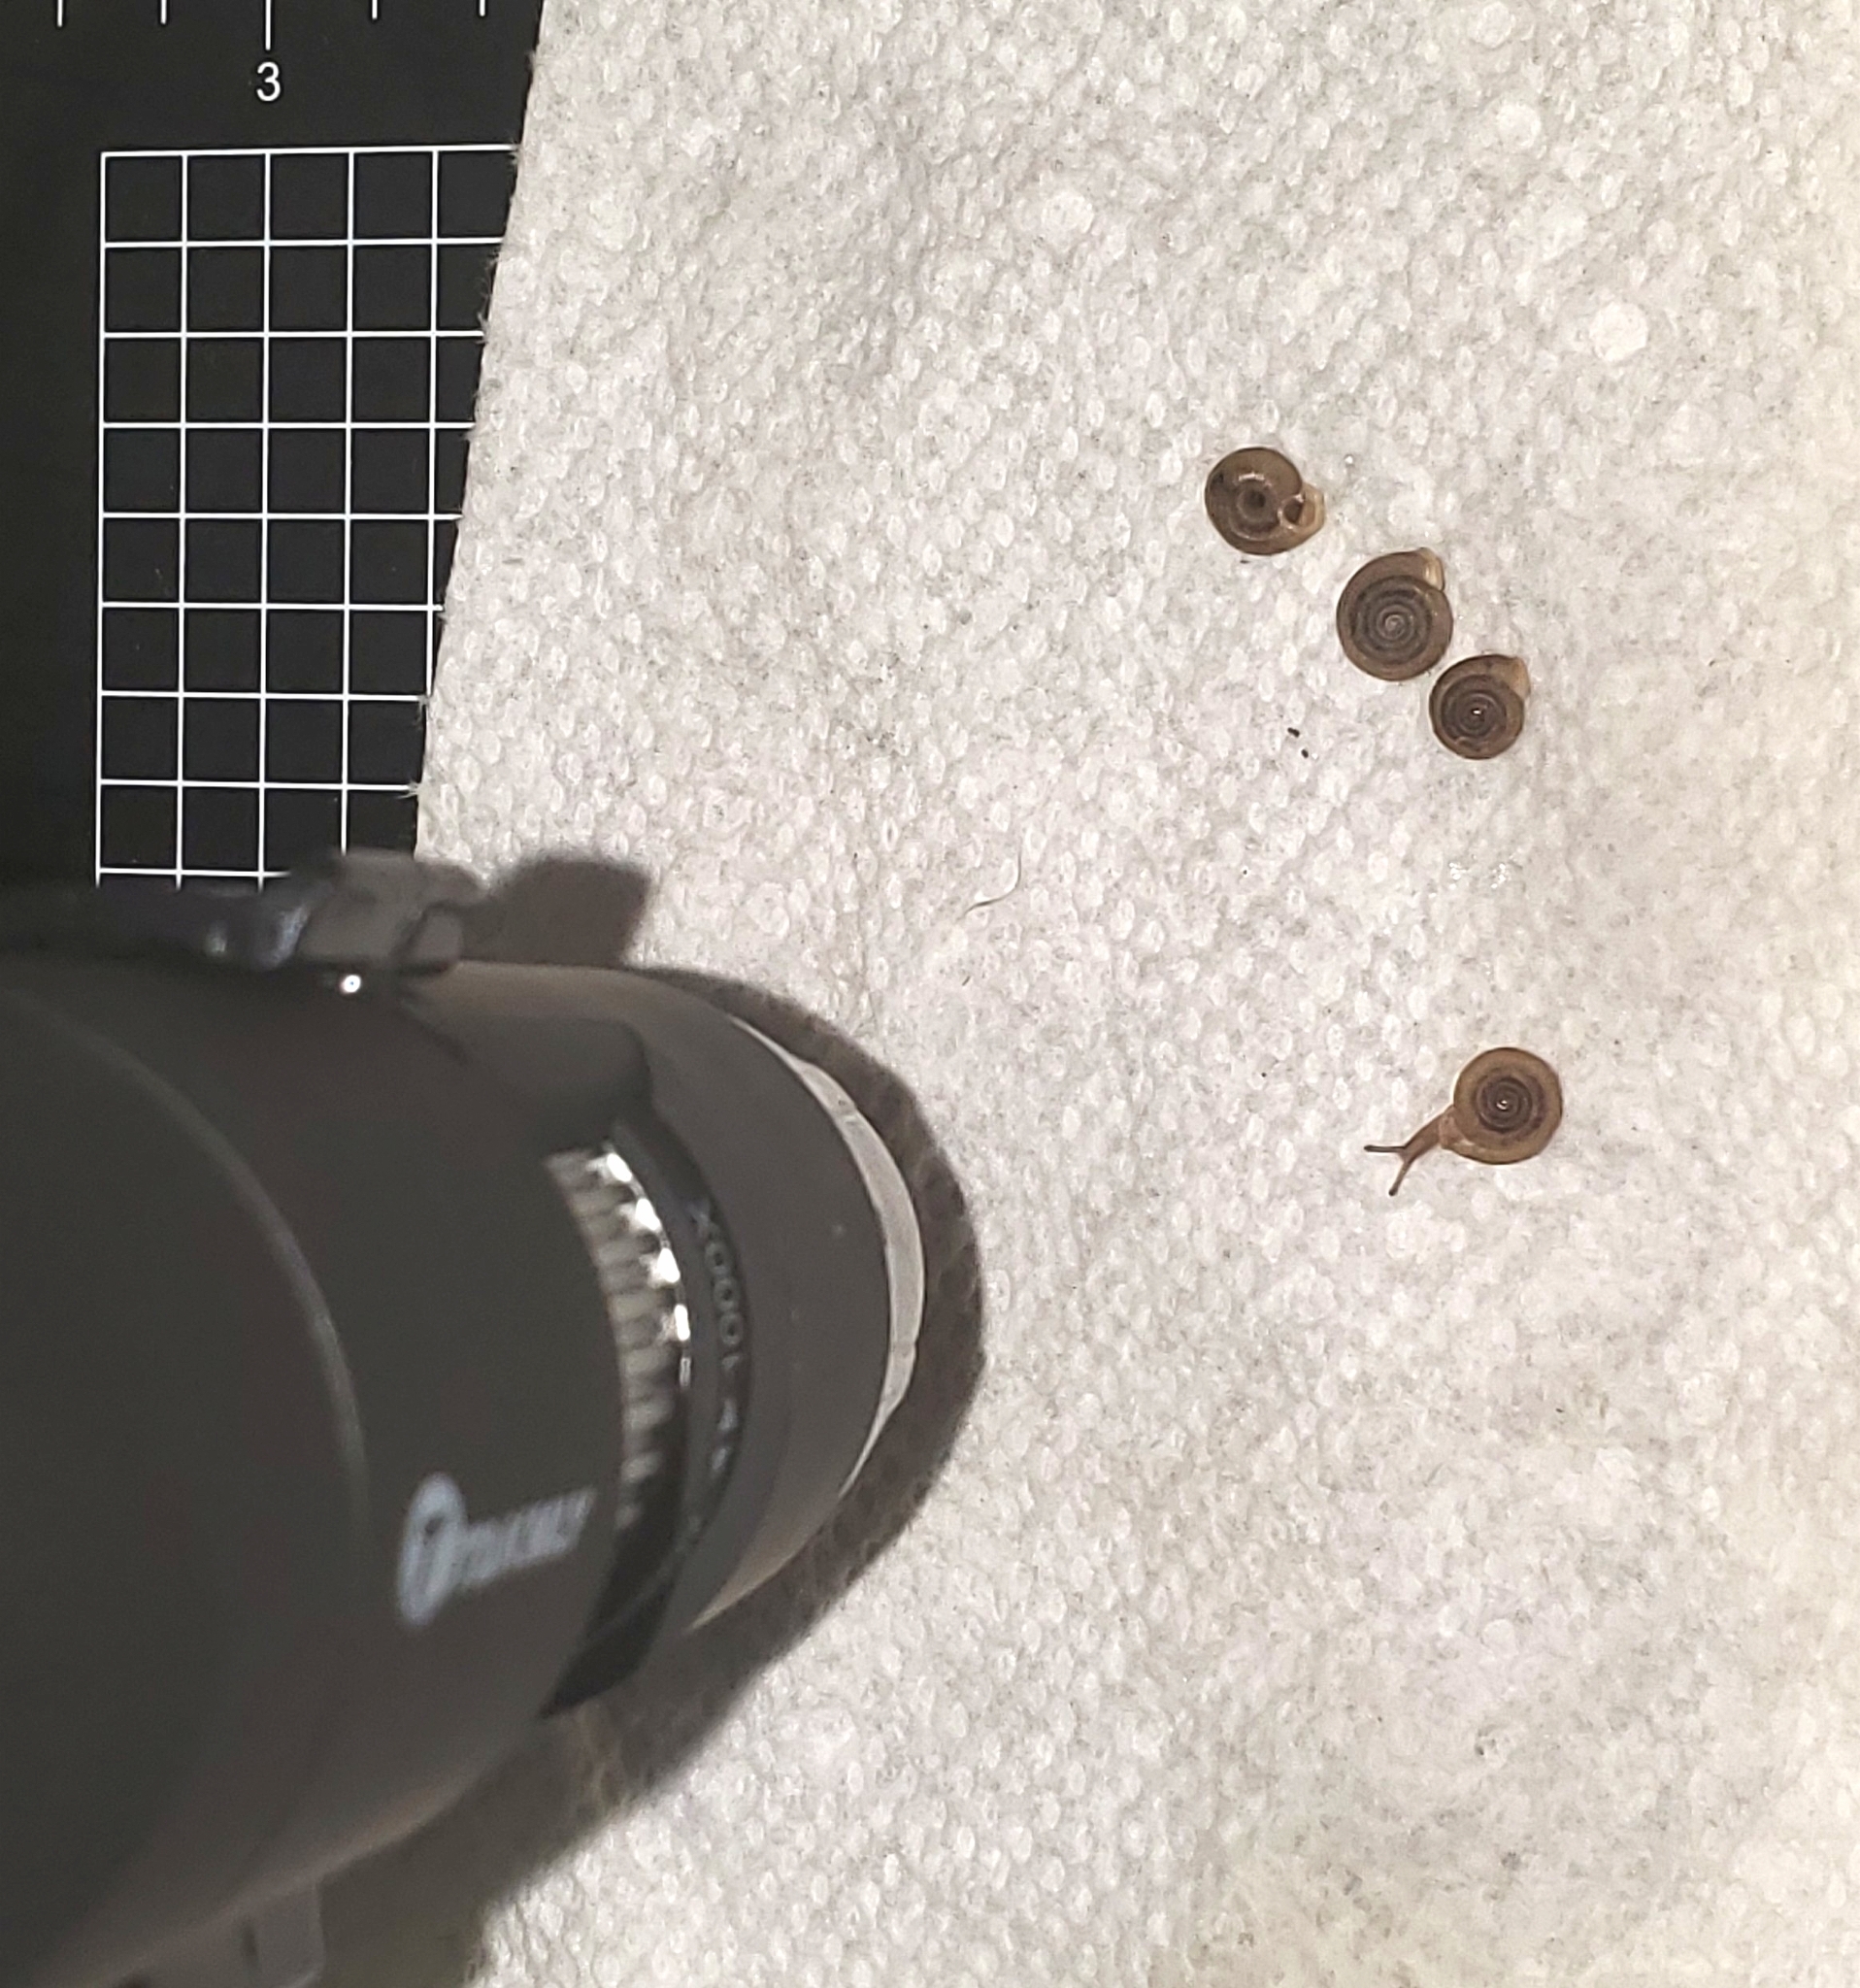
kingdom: Animalia
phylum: Mollusca
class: Gastropoda
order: Stylommatophora
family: Polygyridae
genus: Polygyra
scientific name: Polygyra cereolus
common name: Southern flatcone snail
